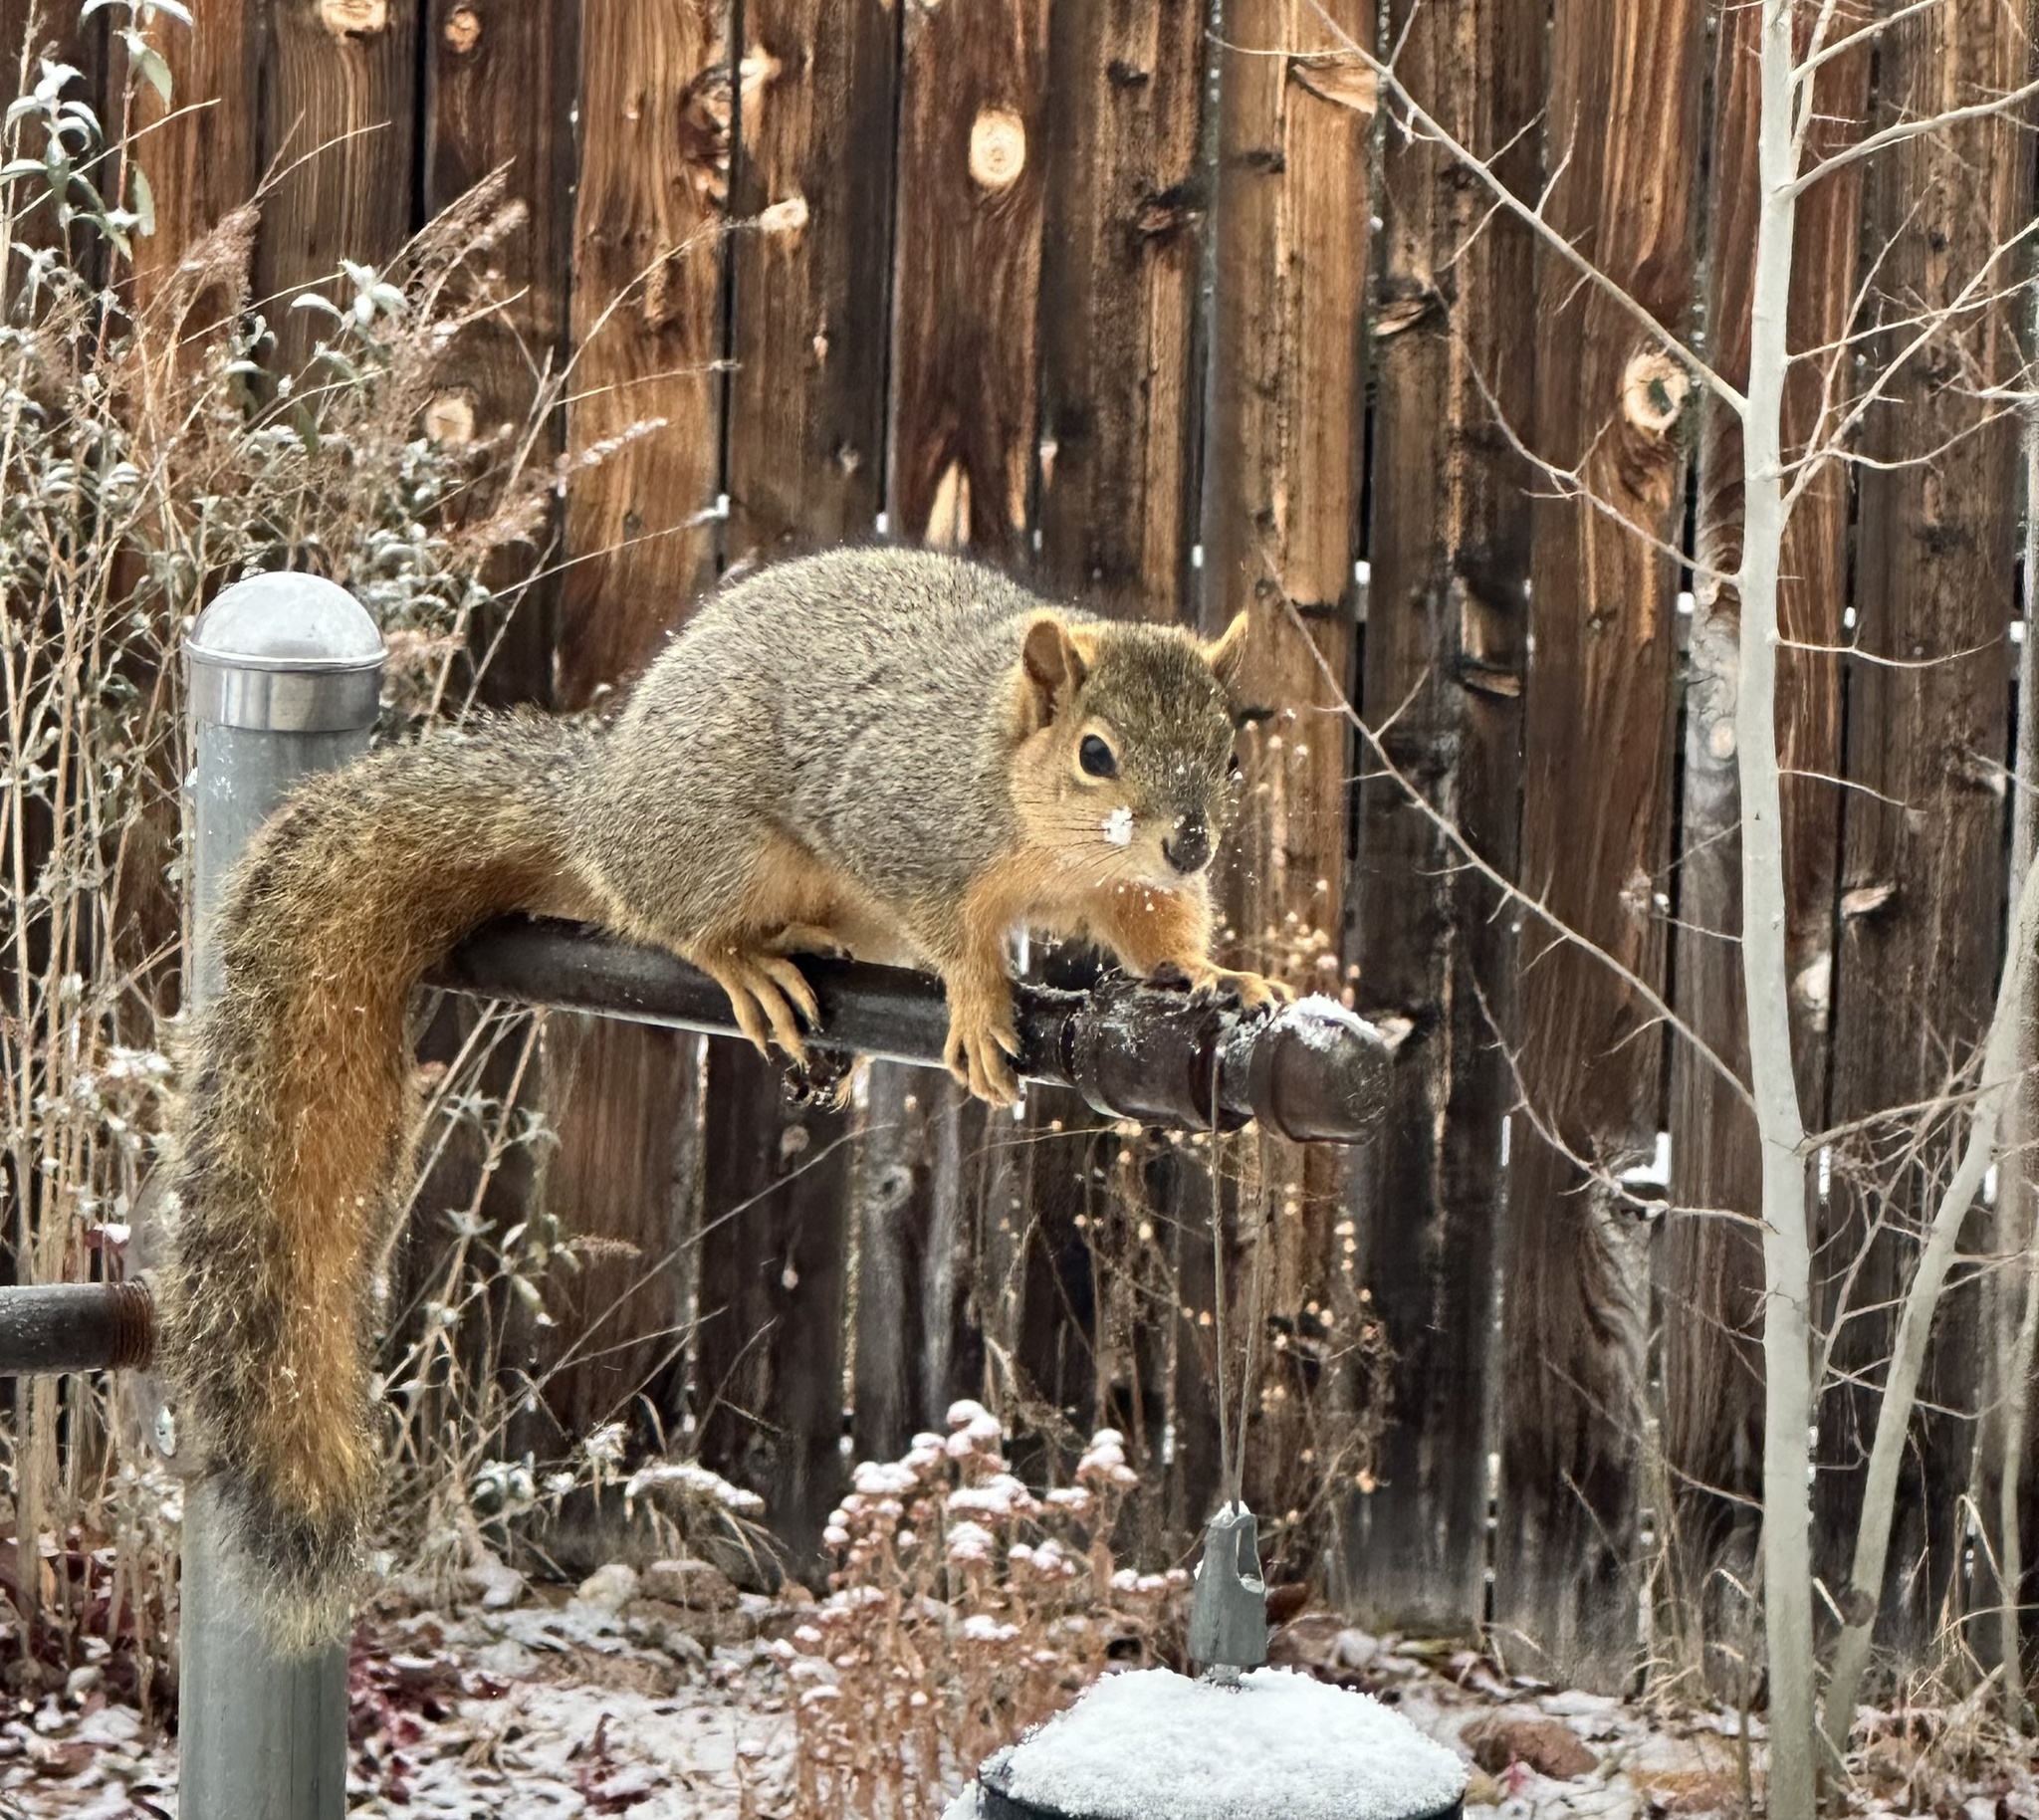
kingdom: Animalia
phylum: Chordata
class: Mammalia
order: Rodentia
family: Sciuridae
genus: Sciurus
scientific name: Sciurus niger
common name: Fox squirrel
